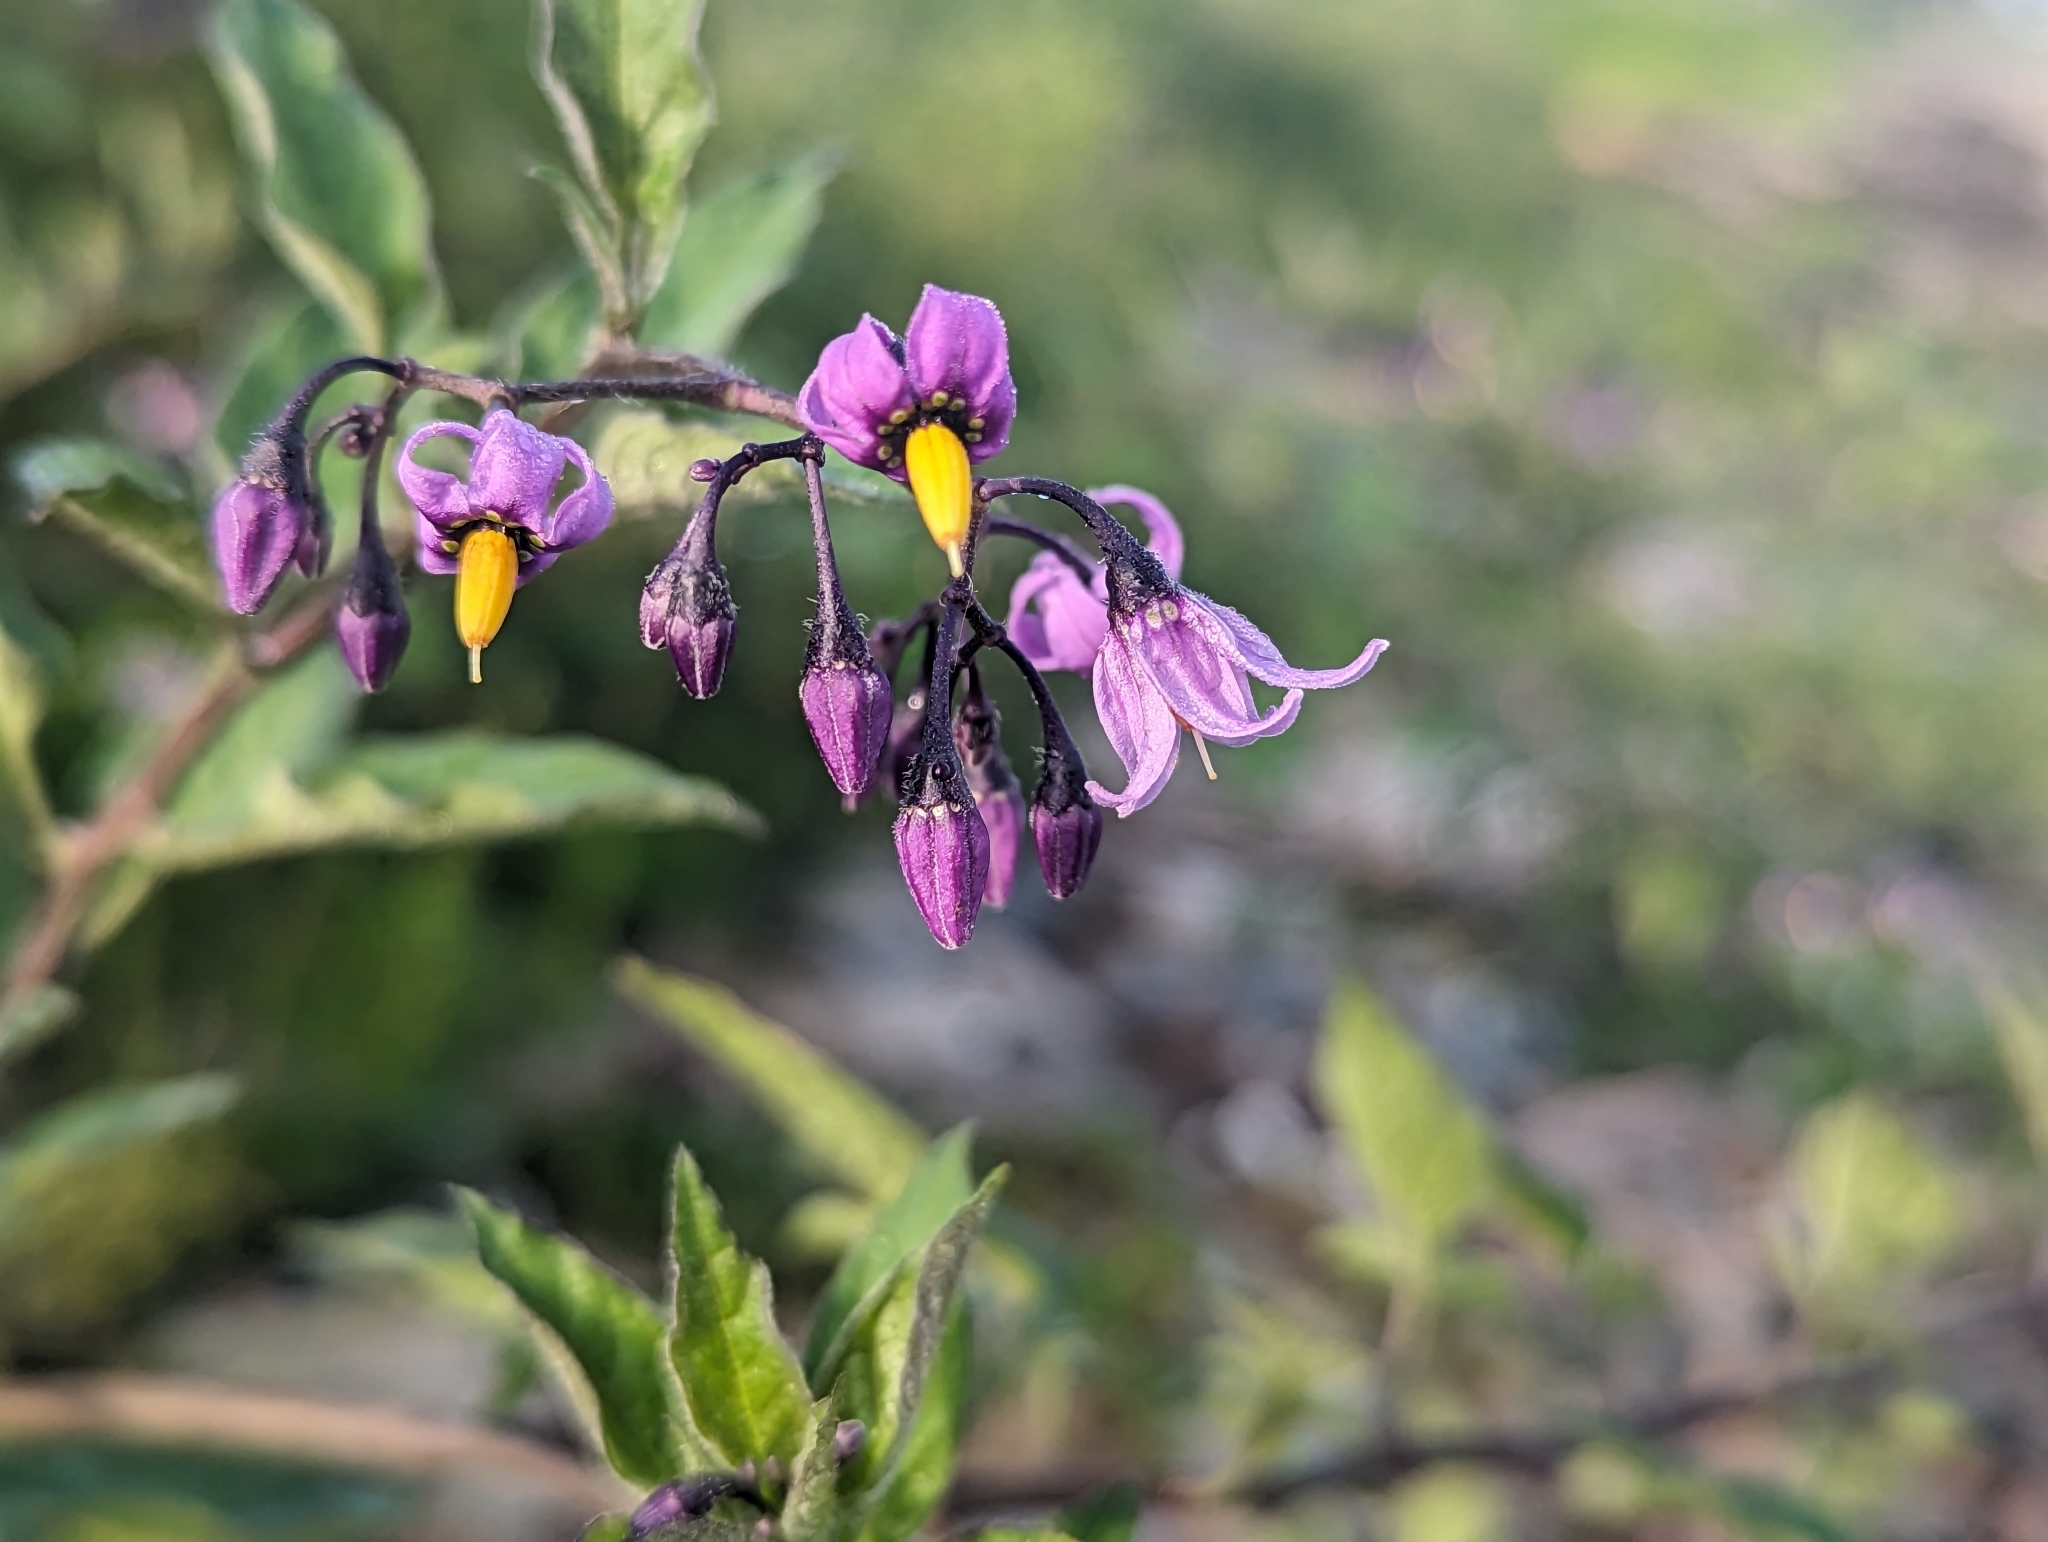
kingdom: Plantae
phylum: Tracheophyta
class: Magnoliopsida
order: Solanales
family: Solanaceae
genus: Solanum
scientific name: Solanum dulcamara
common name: Climbing nightshade
